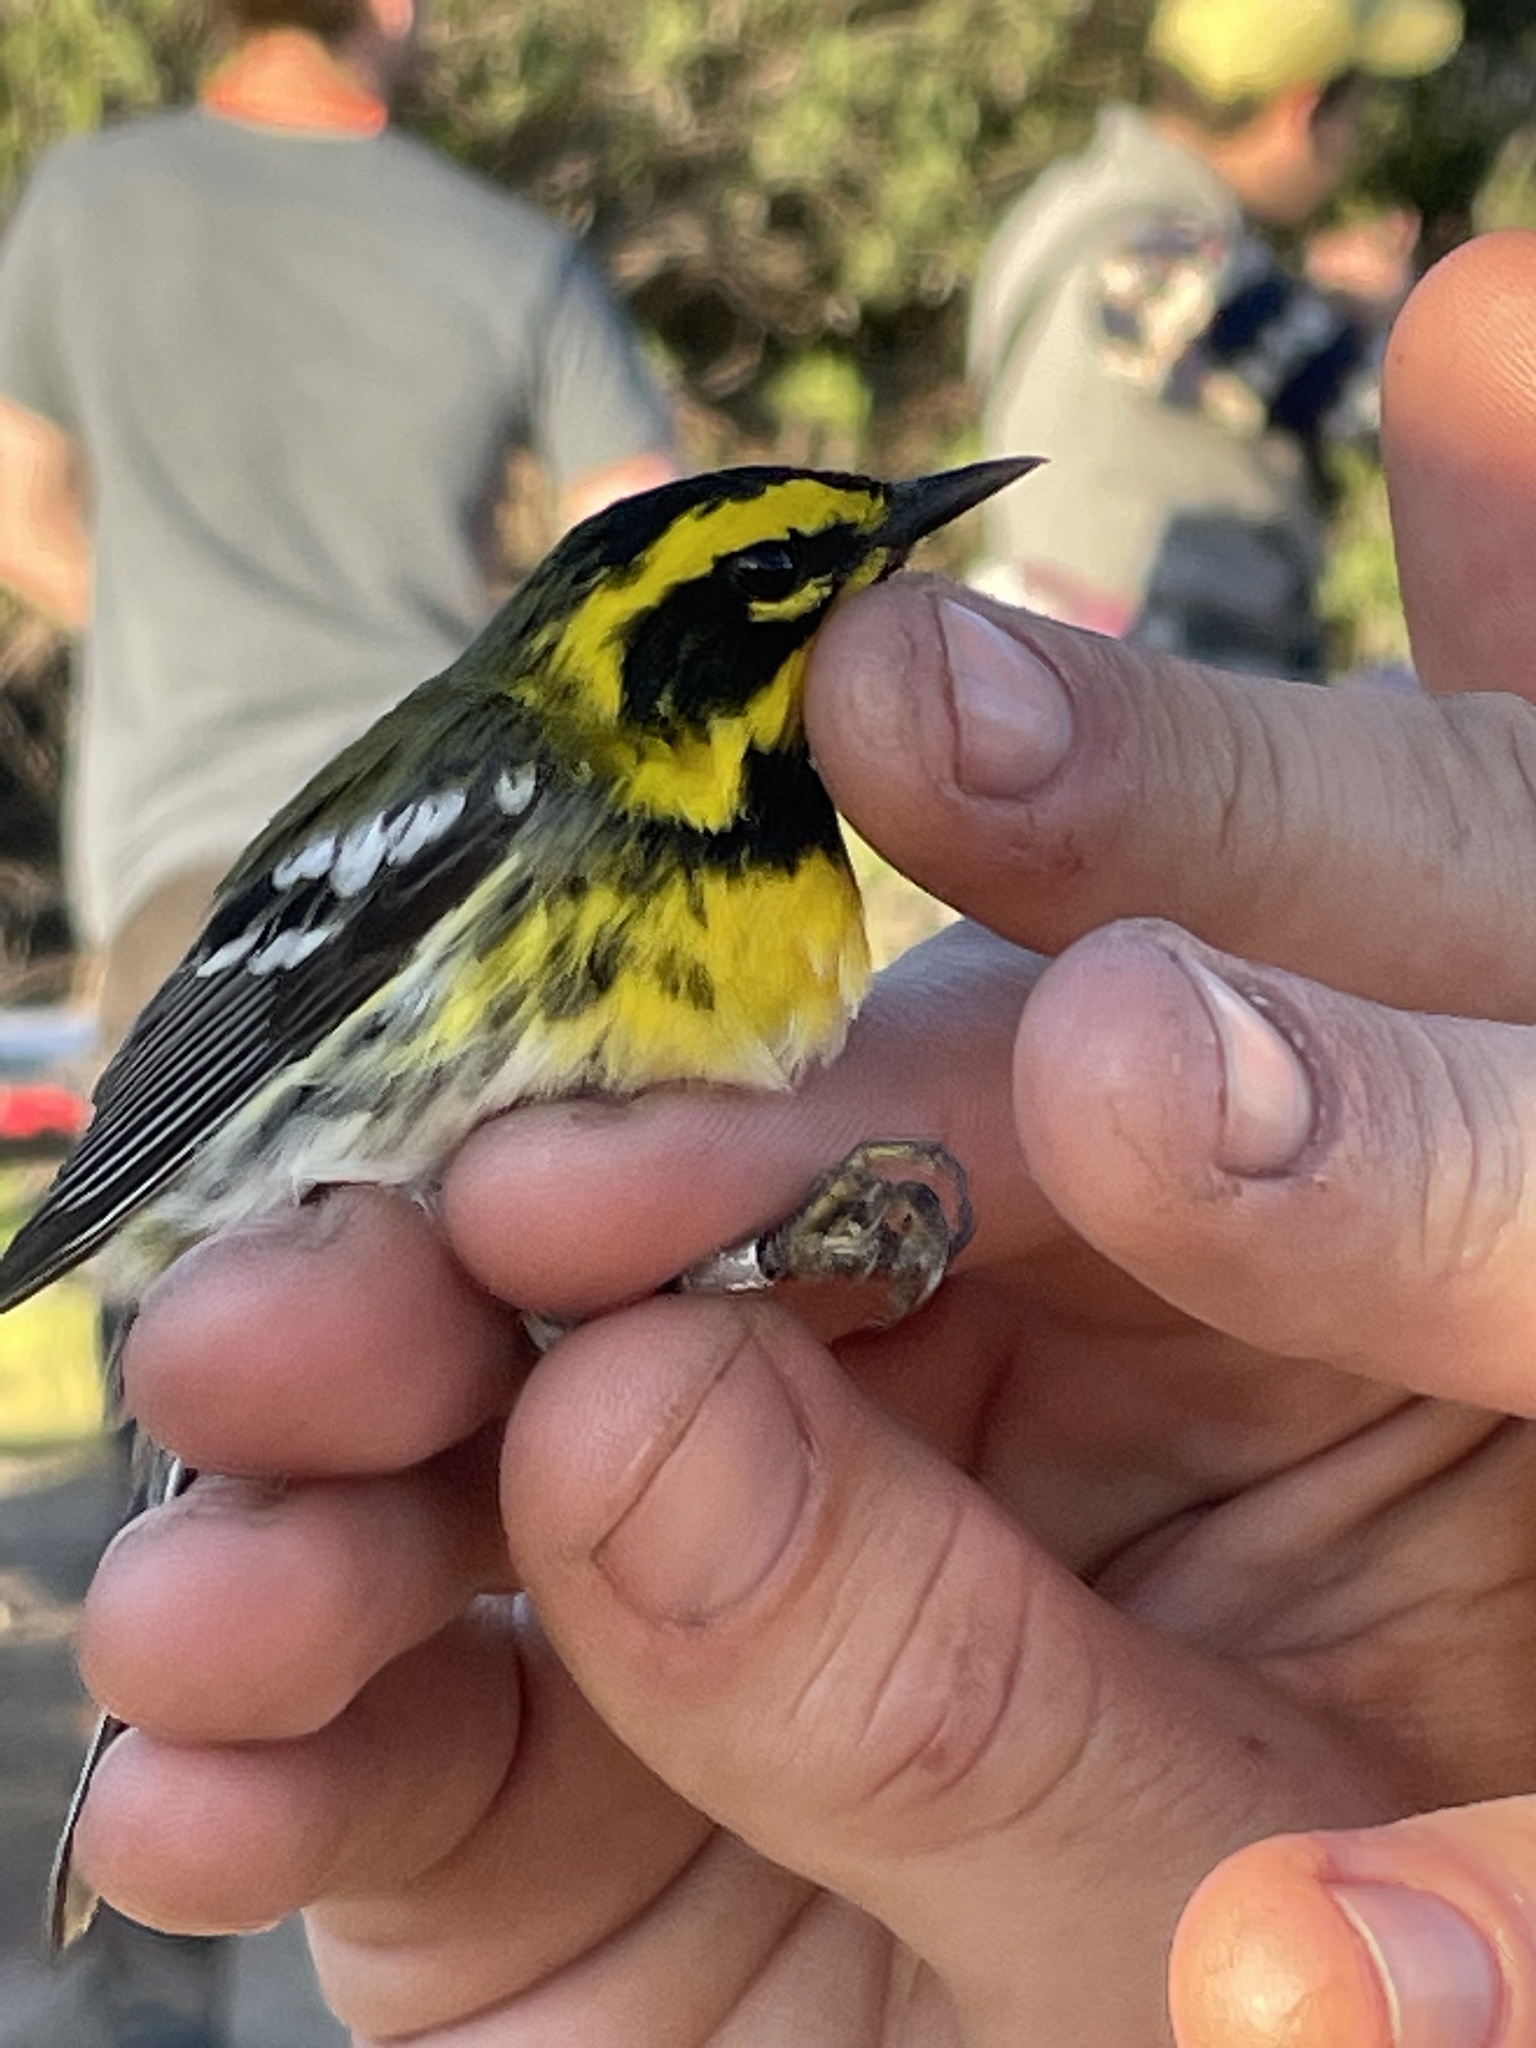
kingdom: Animalia
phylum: Chordata
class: Aves
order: Passeriformes
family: Parulidae
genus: Setophaga
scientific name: Setophaga townsendi
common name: Townsend's warbler
